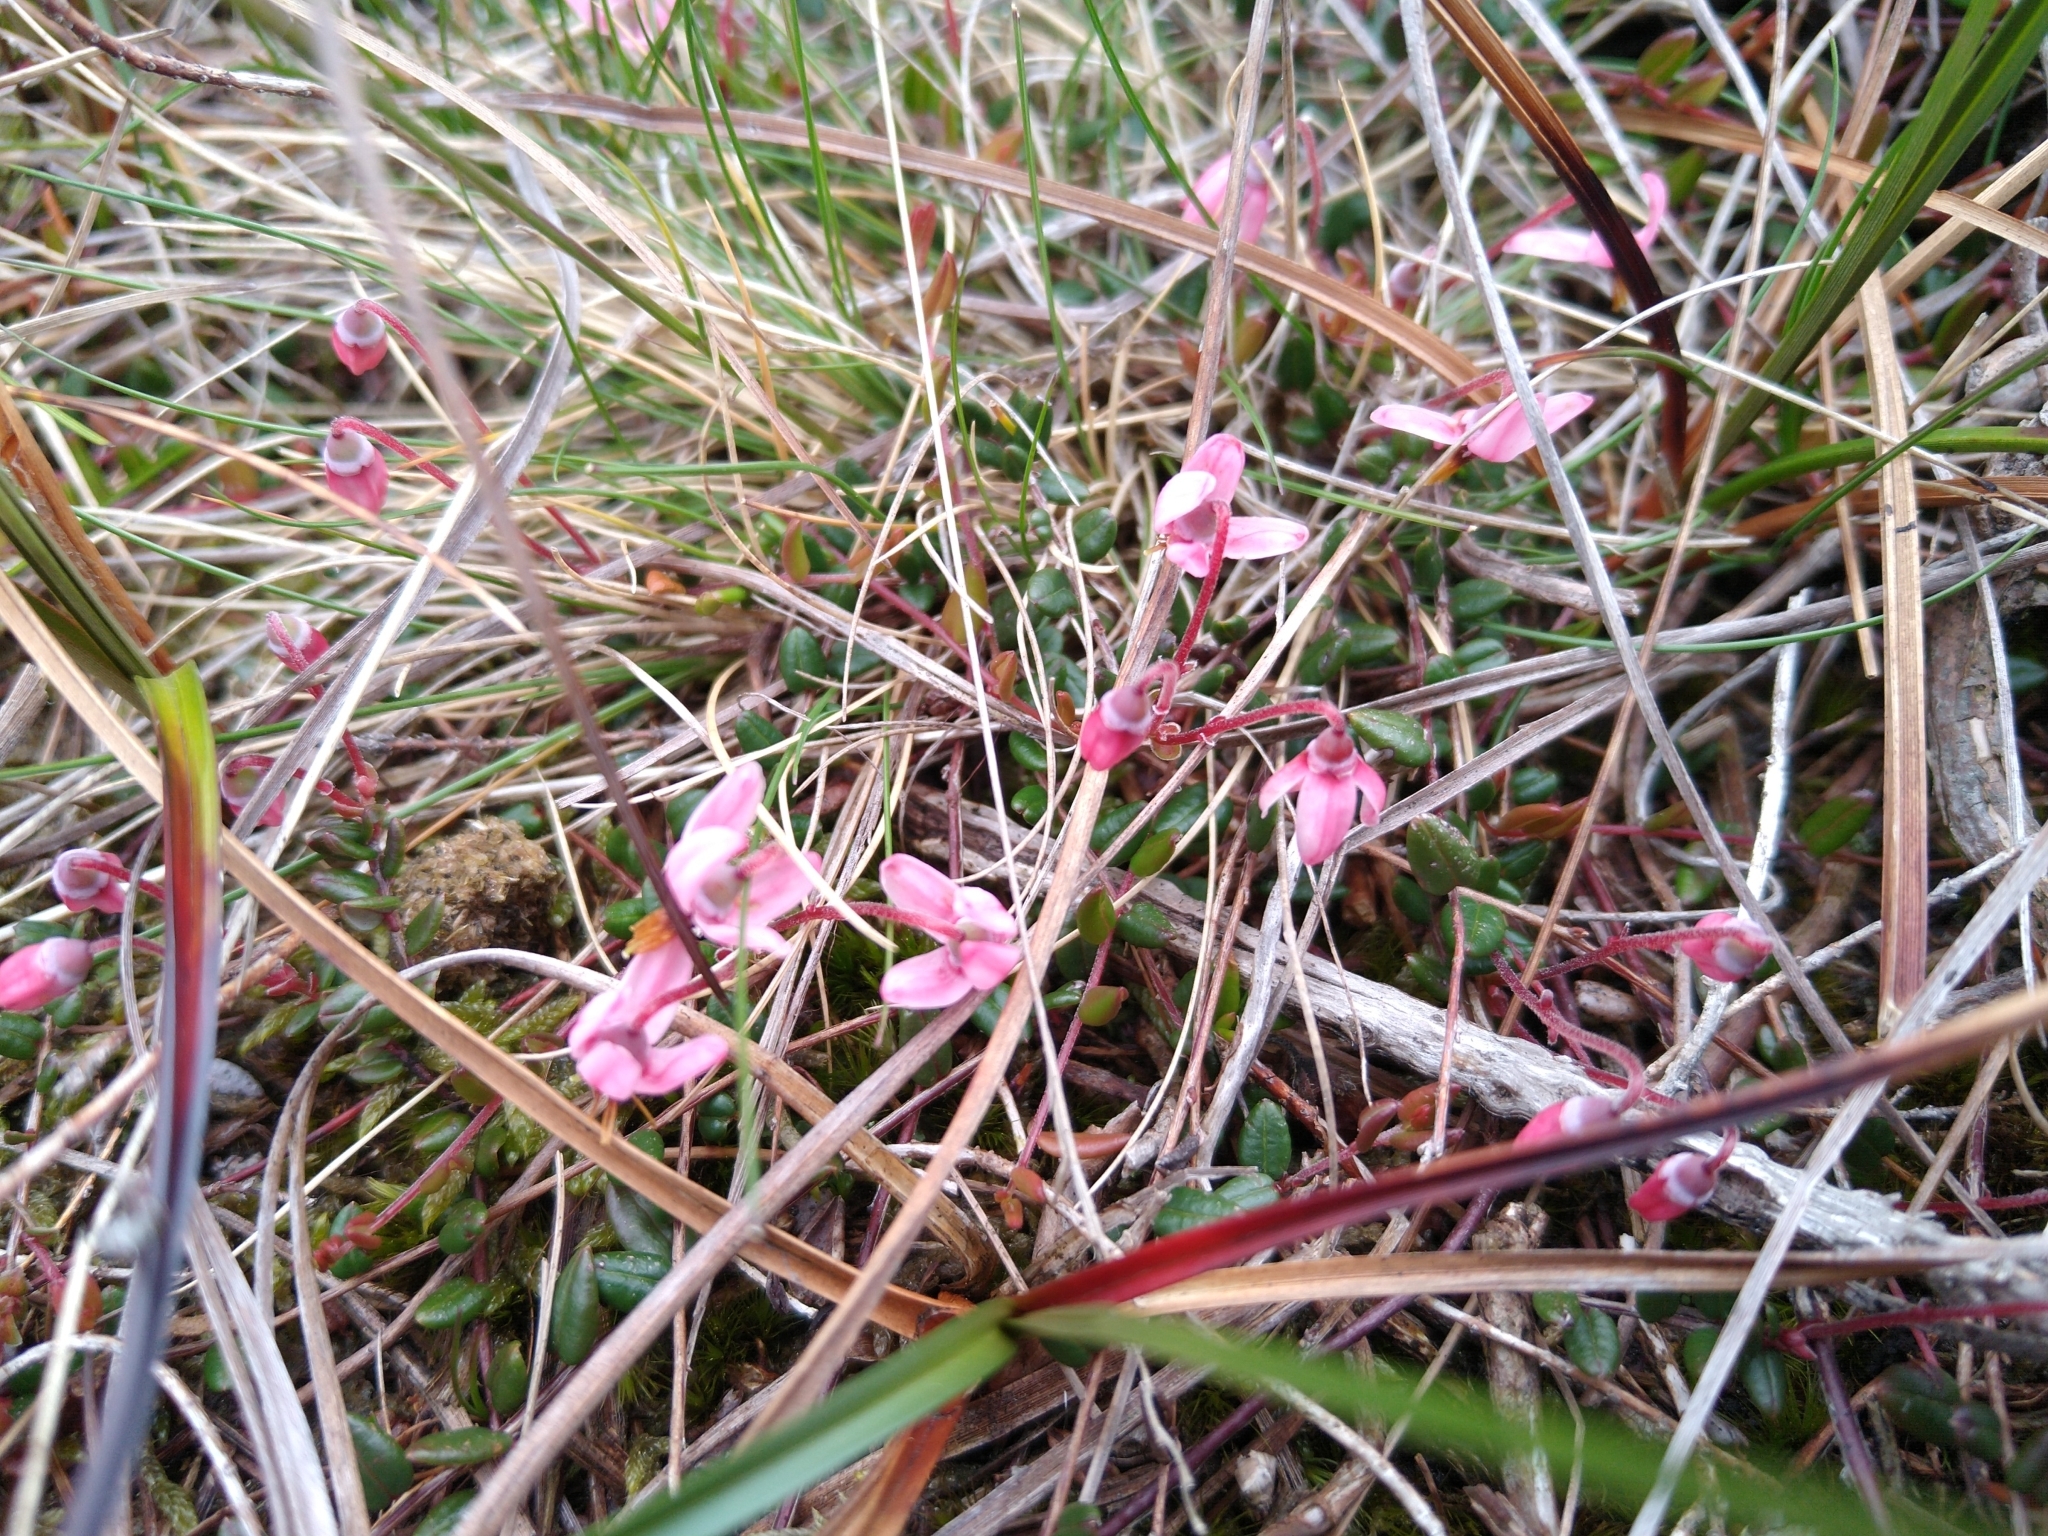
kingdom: Plantae
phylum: Tracheophyta
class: Magnoliopsida
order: Ericales
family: Ericaceae
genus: Vaccinium
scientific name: Vaccinium oxycoccos
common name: Cranberry
